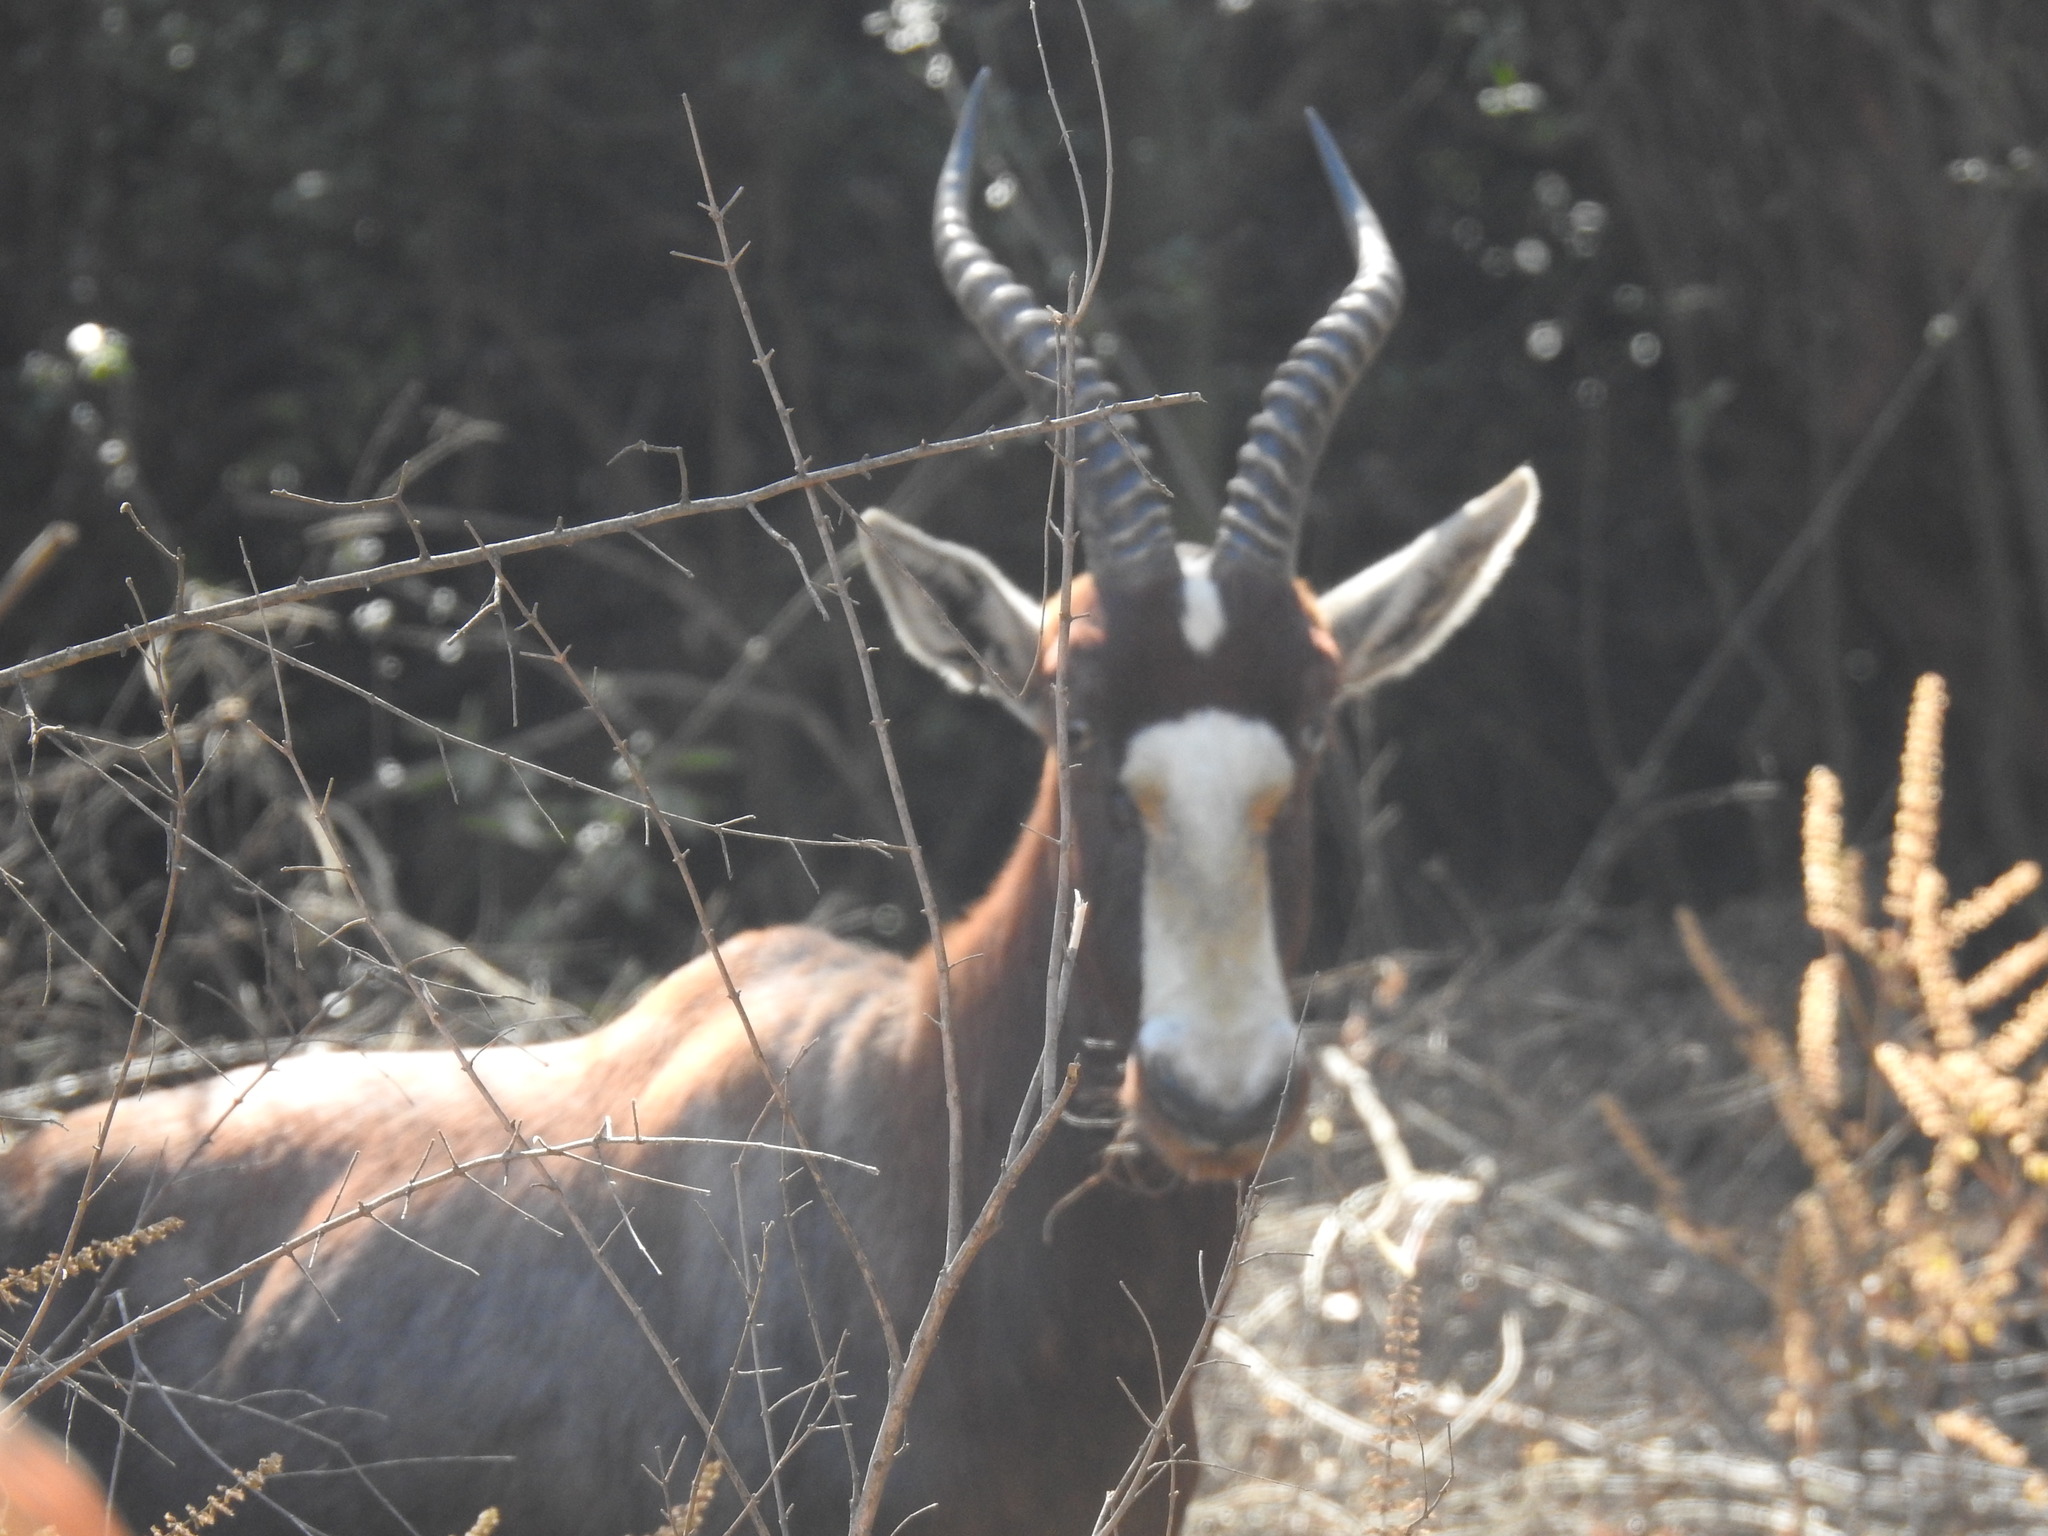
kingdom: Animalia
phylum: Chordata
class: Mammalia
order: Artiodactyla
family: Bovidae
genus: Damaliscus
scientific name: Damaliscus pygargus
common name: Bontebok
